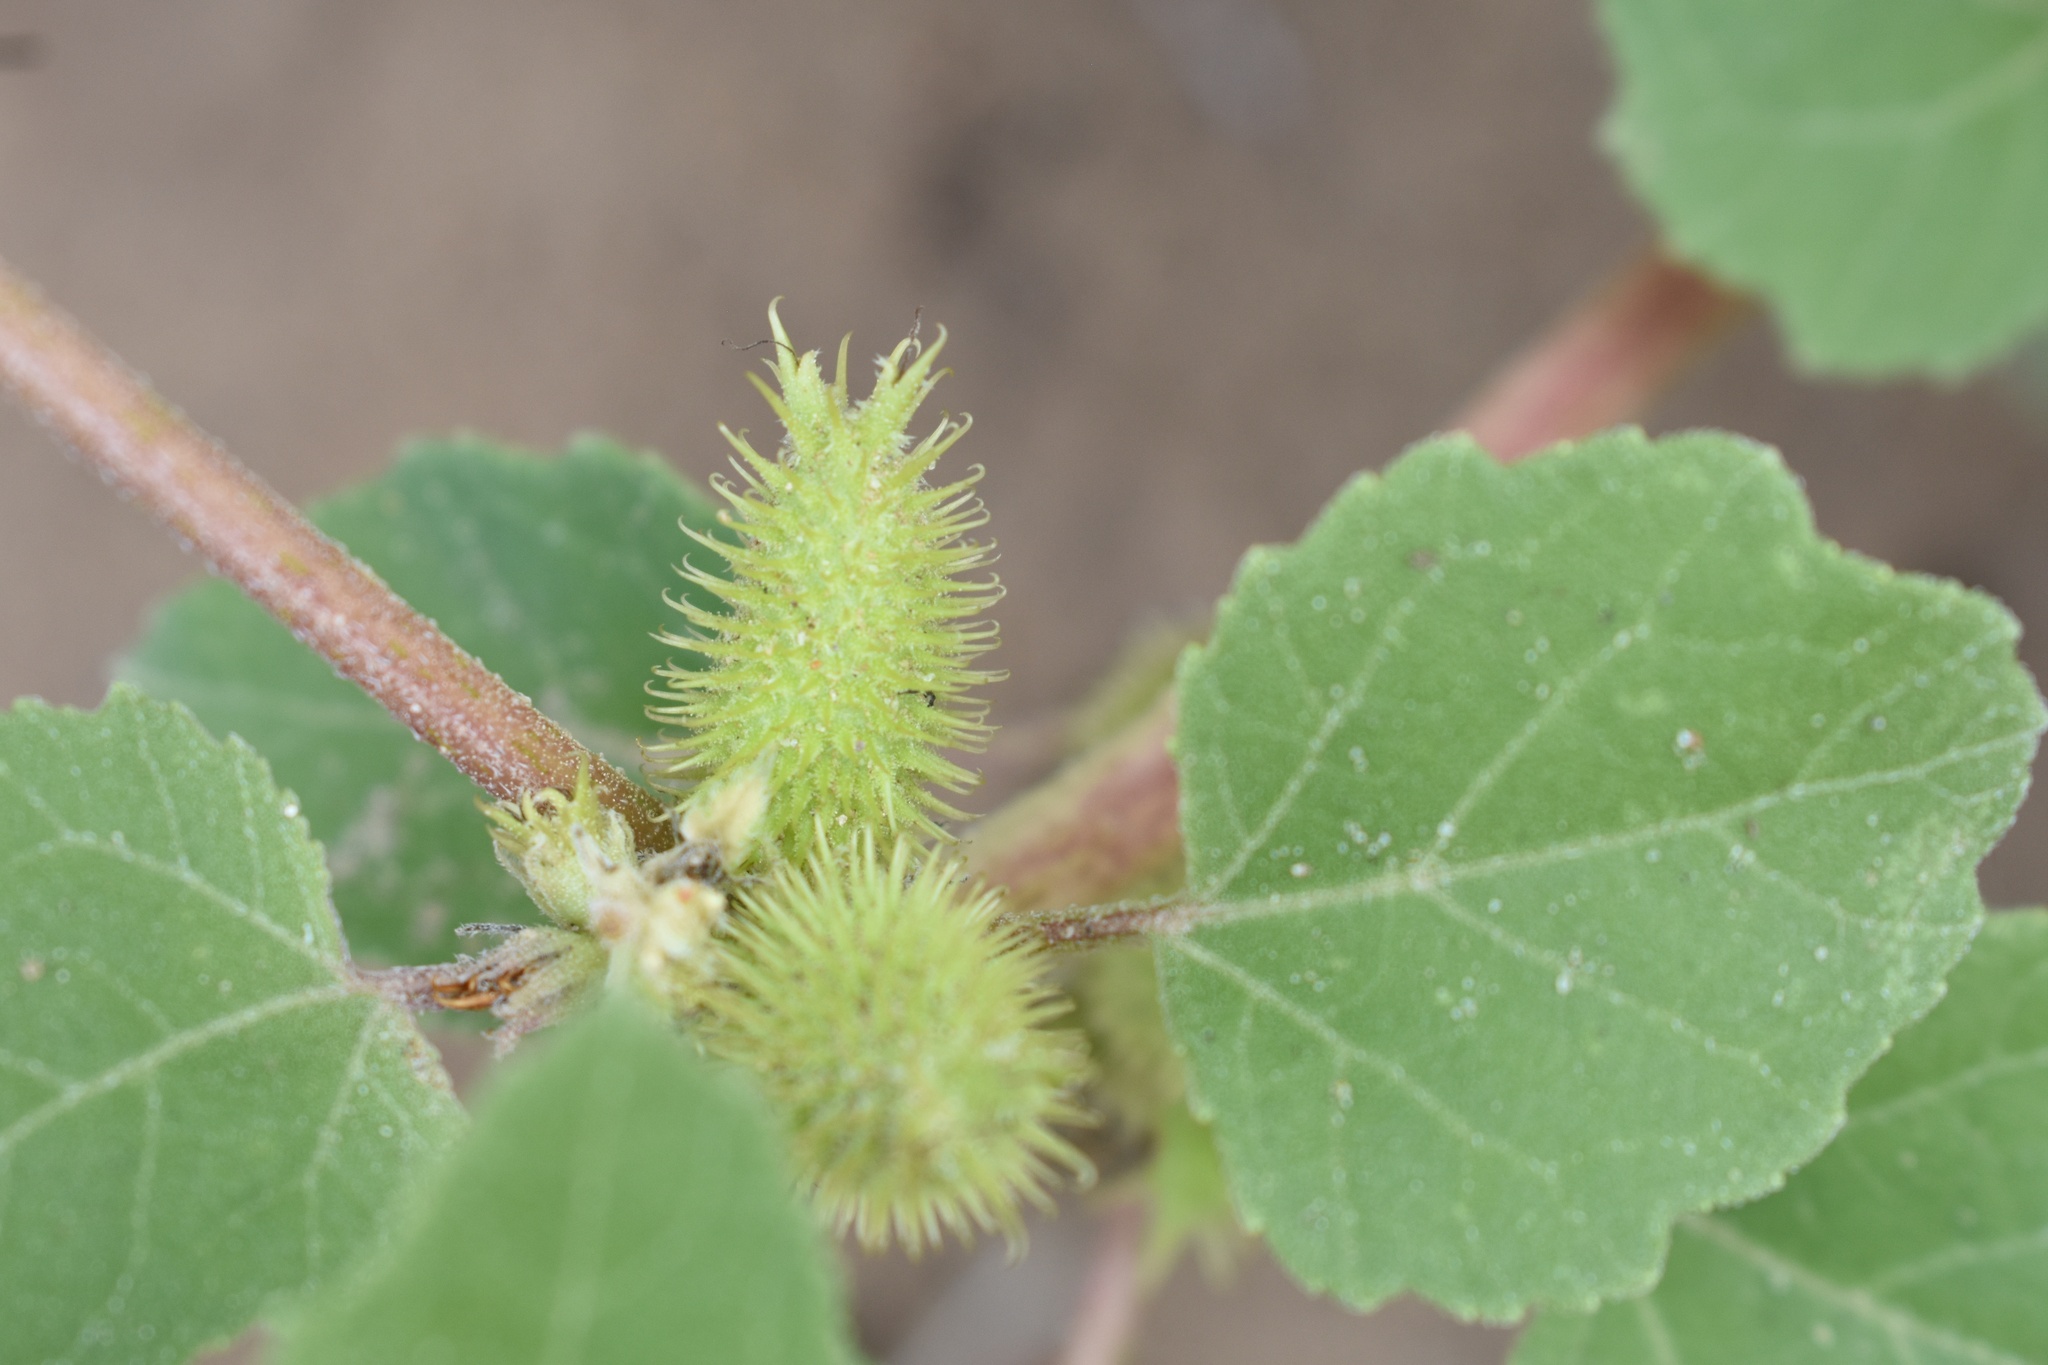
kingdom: Plantae
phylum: Tracheophyta
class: Magnoliopsida
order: Asterales
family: Asteraceae
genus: Xanthium
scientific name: Xanthium strumarium
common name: Rough cocklebur
